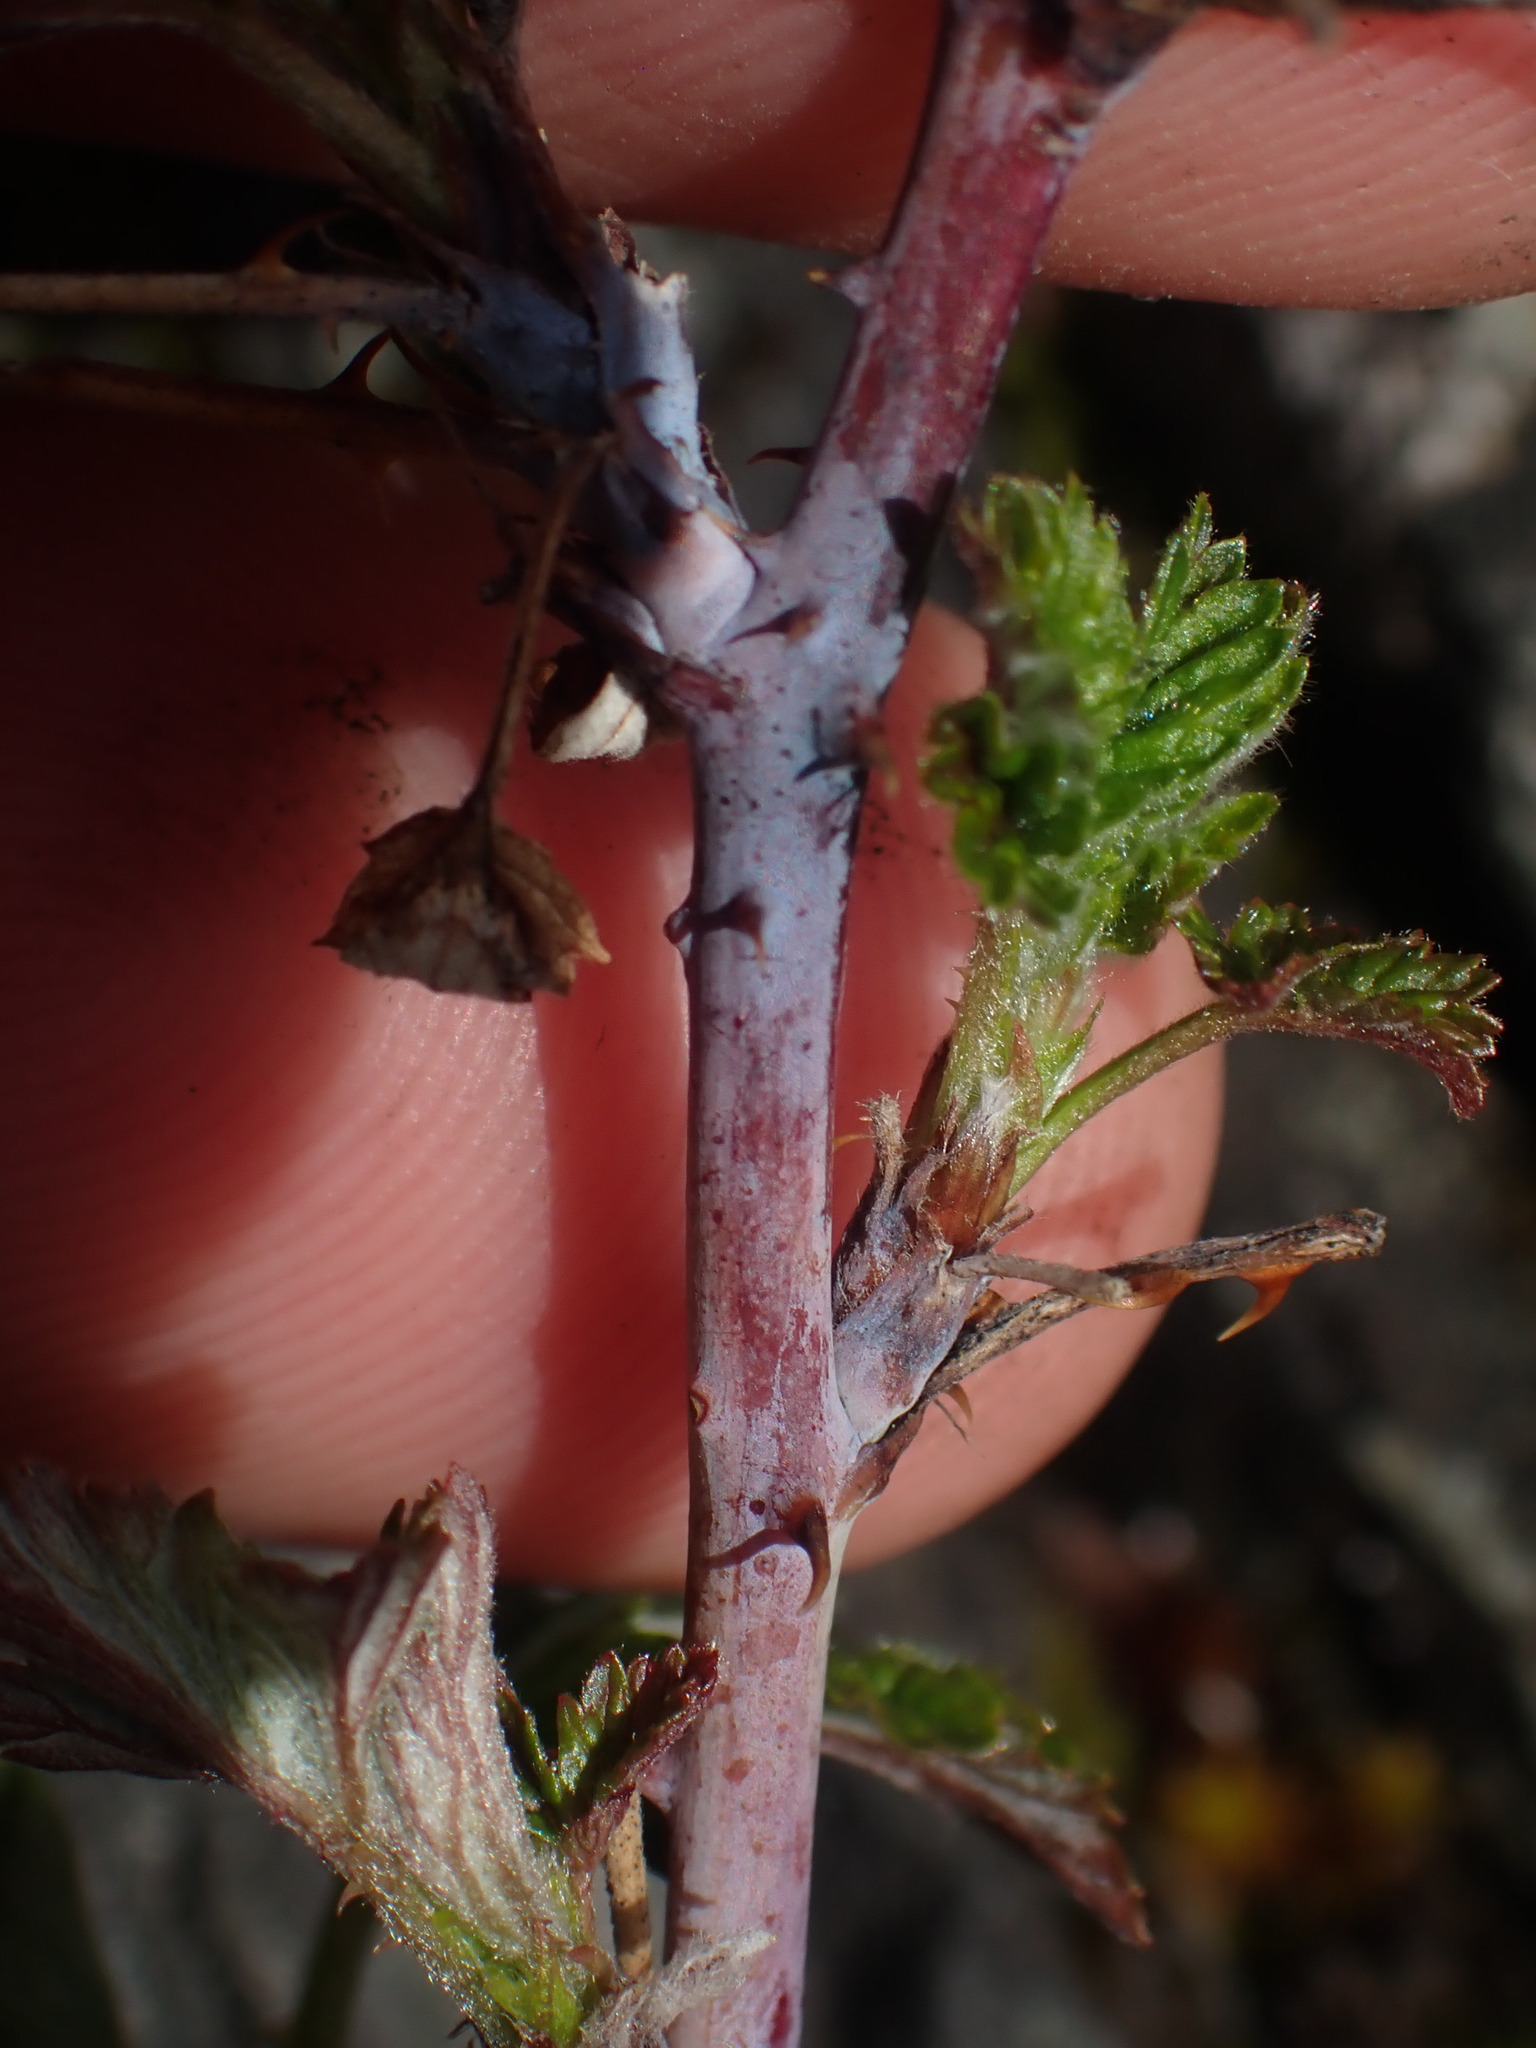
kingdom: Plantae
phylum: Tracheophyta
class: Magnoliopsida
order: Rosales
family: Rosaceae
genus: Rubus
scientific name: Rubus leucodermis
